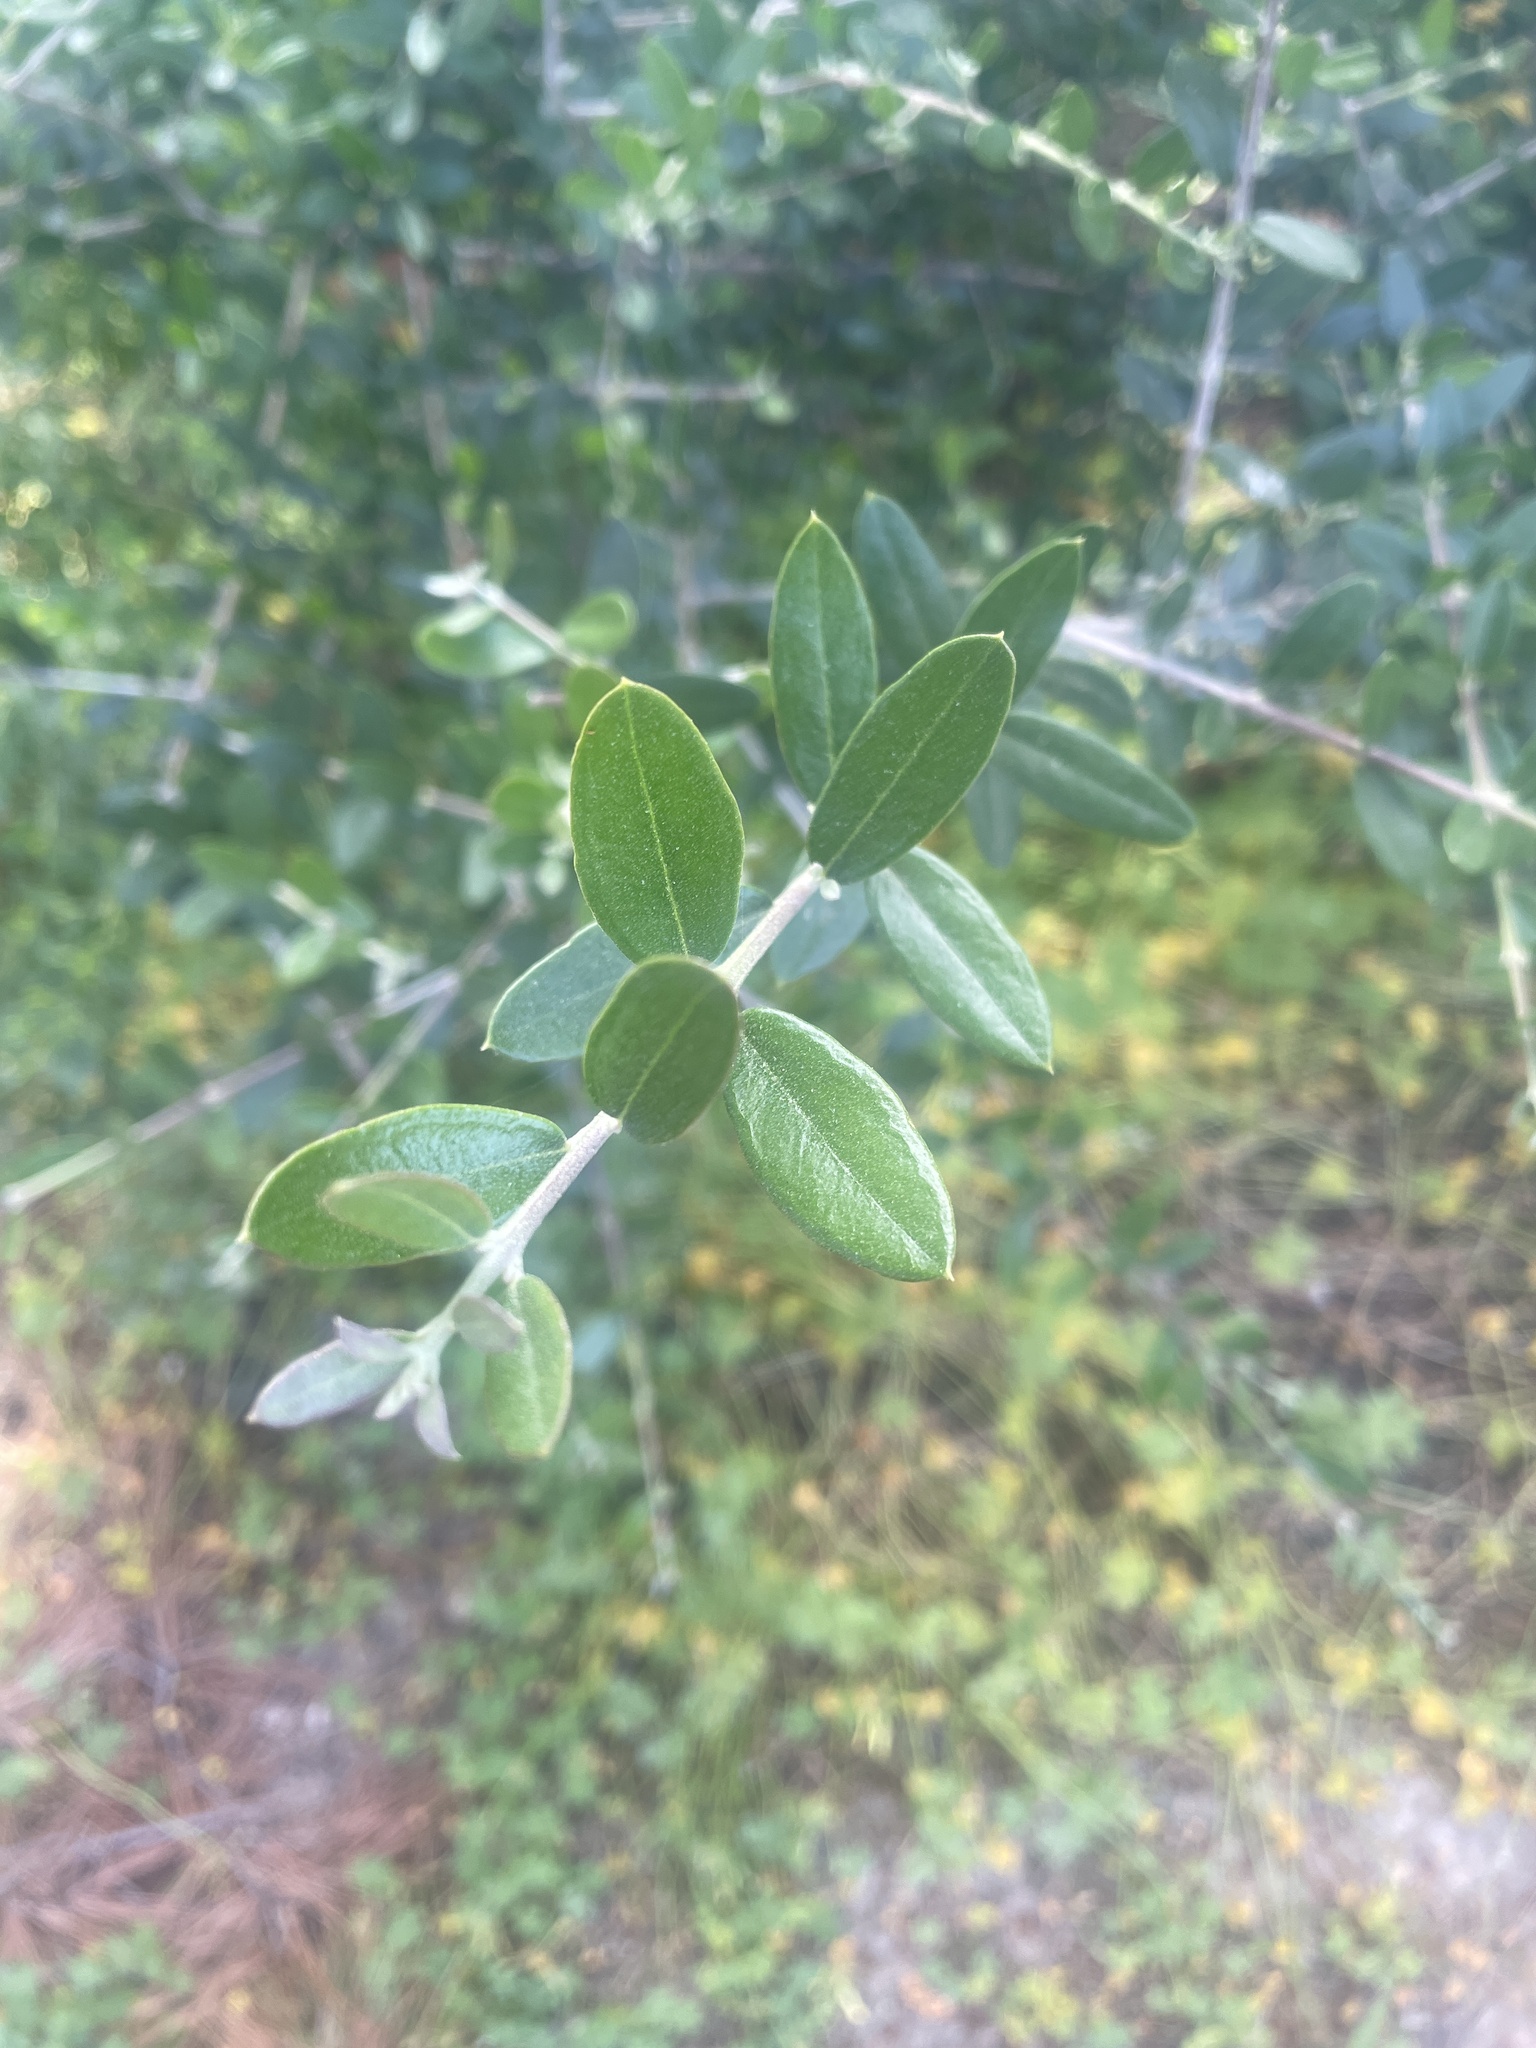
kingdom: Plantae
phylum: Tracheophyta
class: Magnoliopsida
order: Lamiales
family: Oleaceae
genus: Olea
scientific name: Olea europaea
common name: Olive
